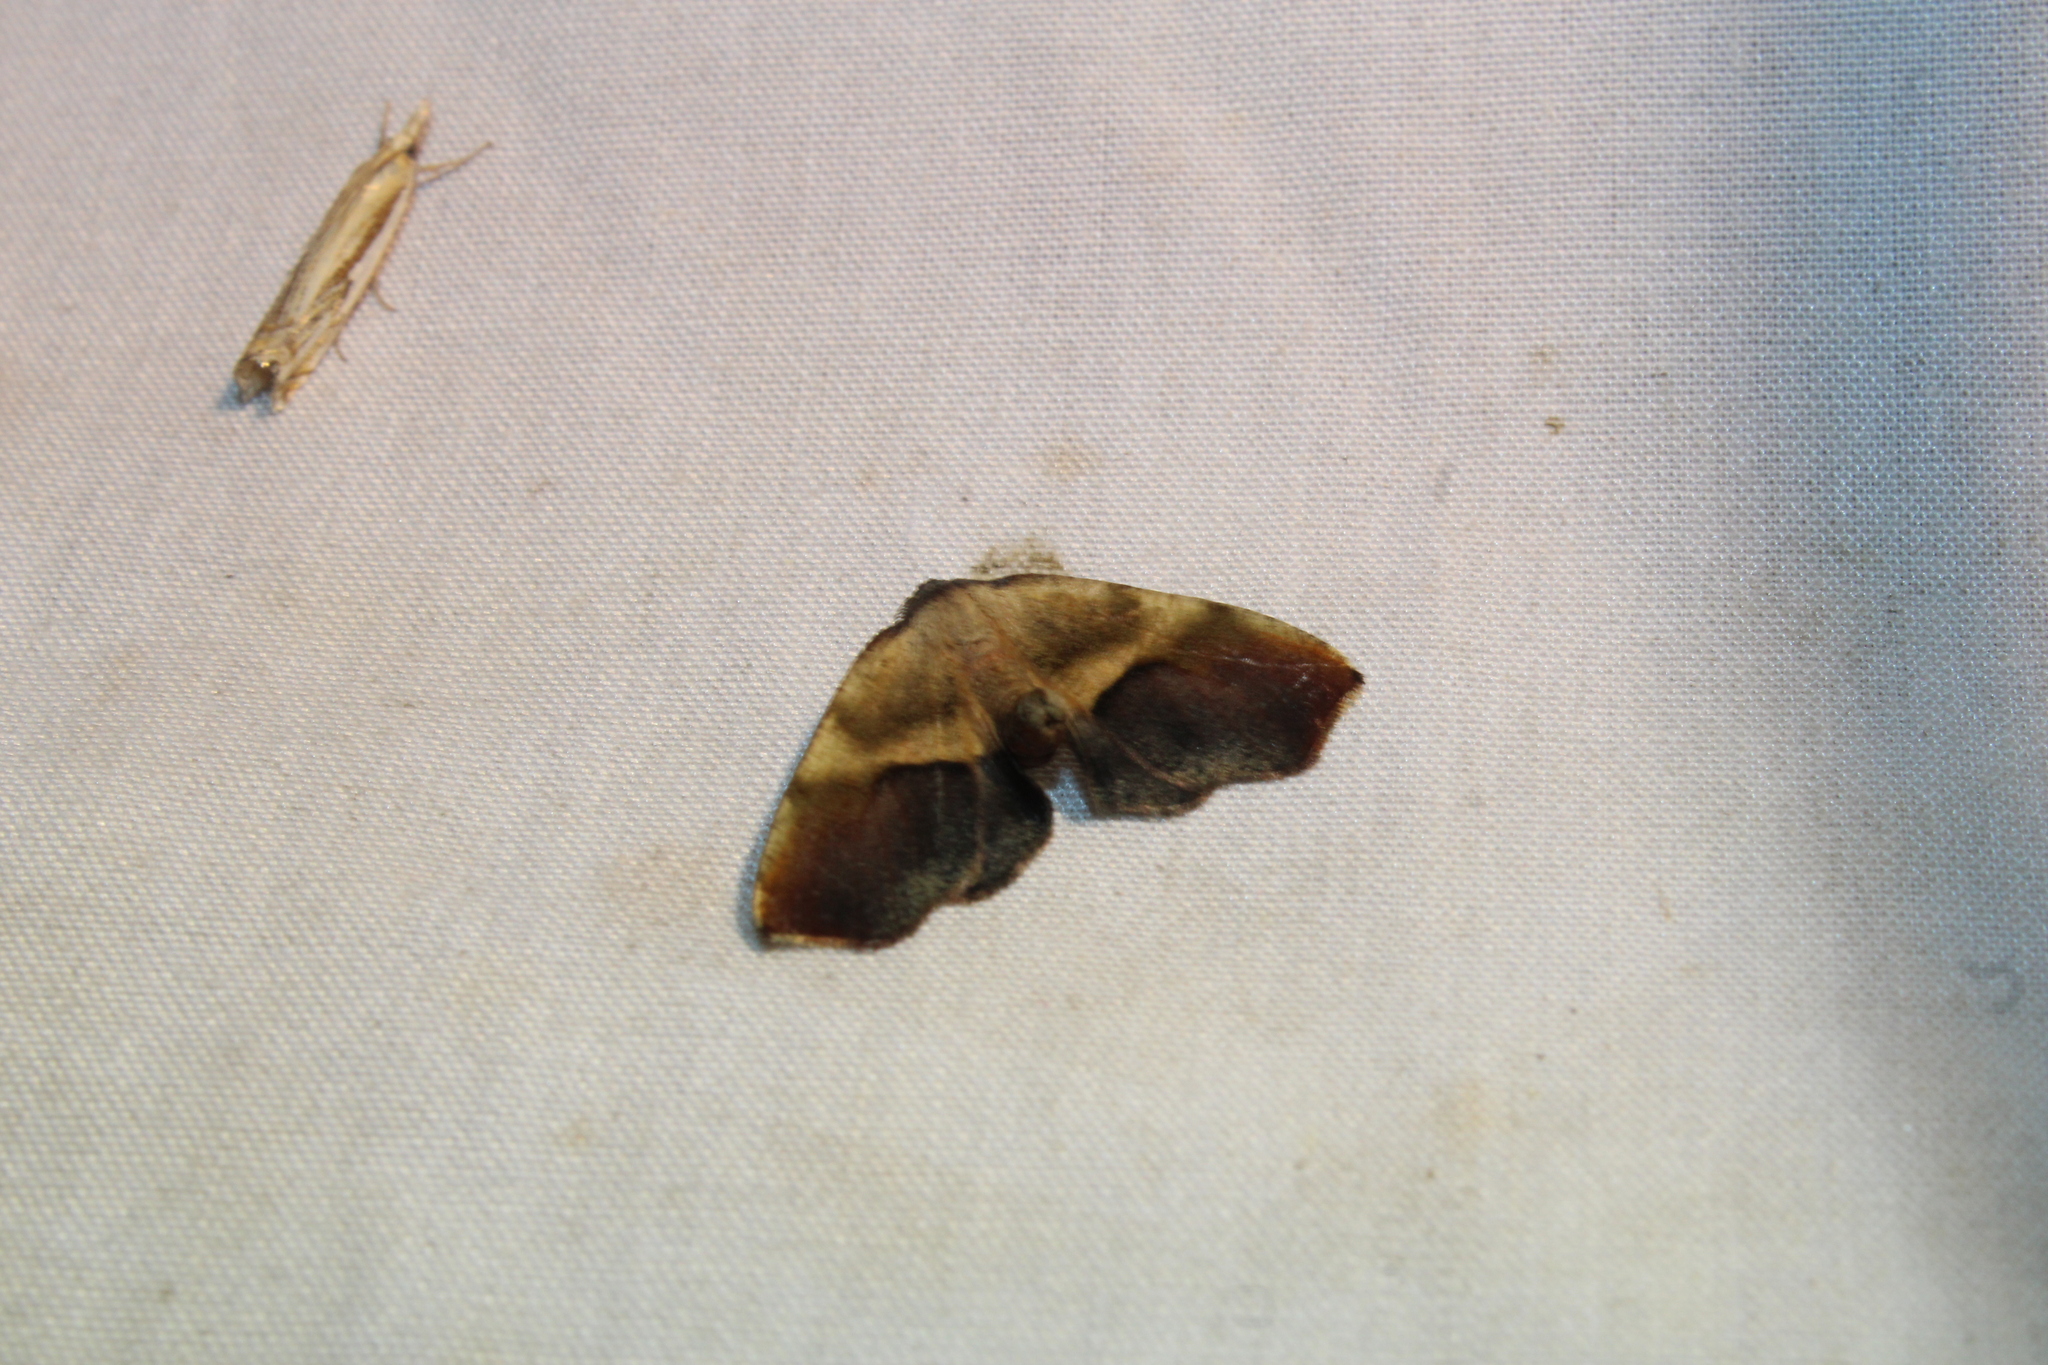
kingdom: Animalia
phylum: Arthropoda
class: Insecta
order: Lepidoptera
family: Geometridae
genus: Plagodis
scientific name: Plagodis kuetzingi
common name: Purple plagodis
